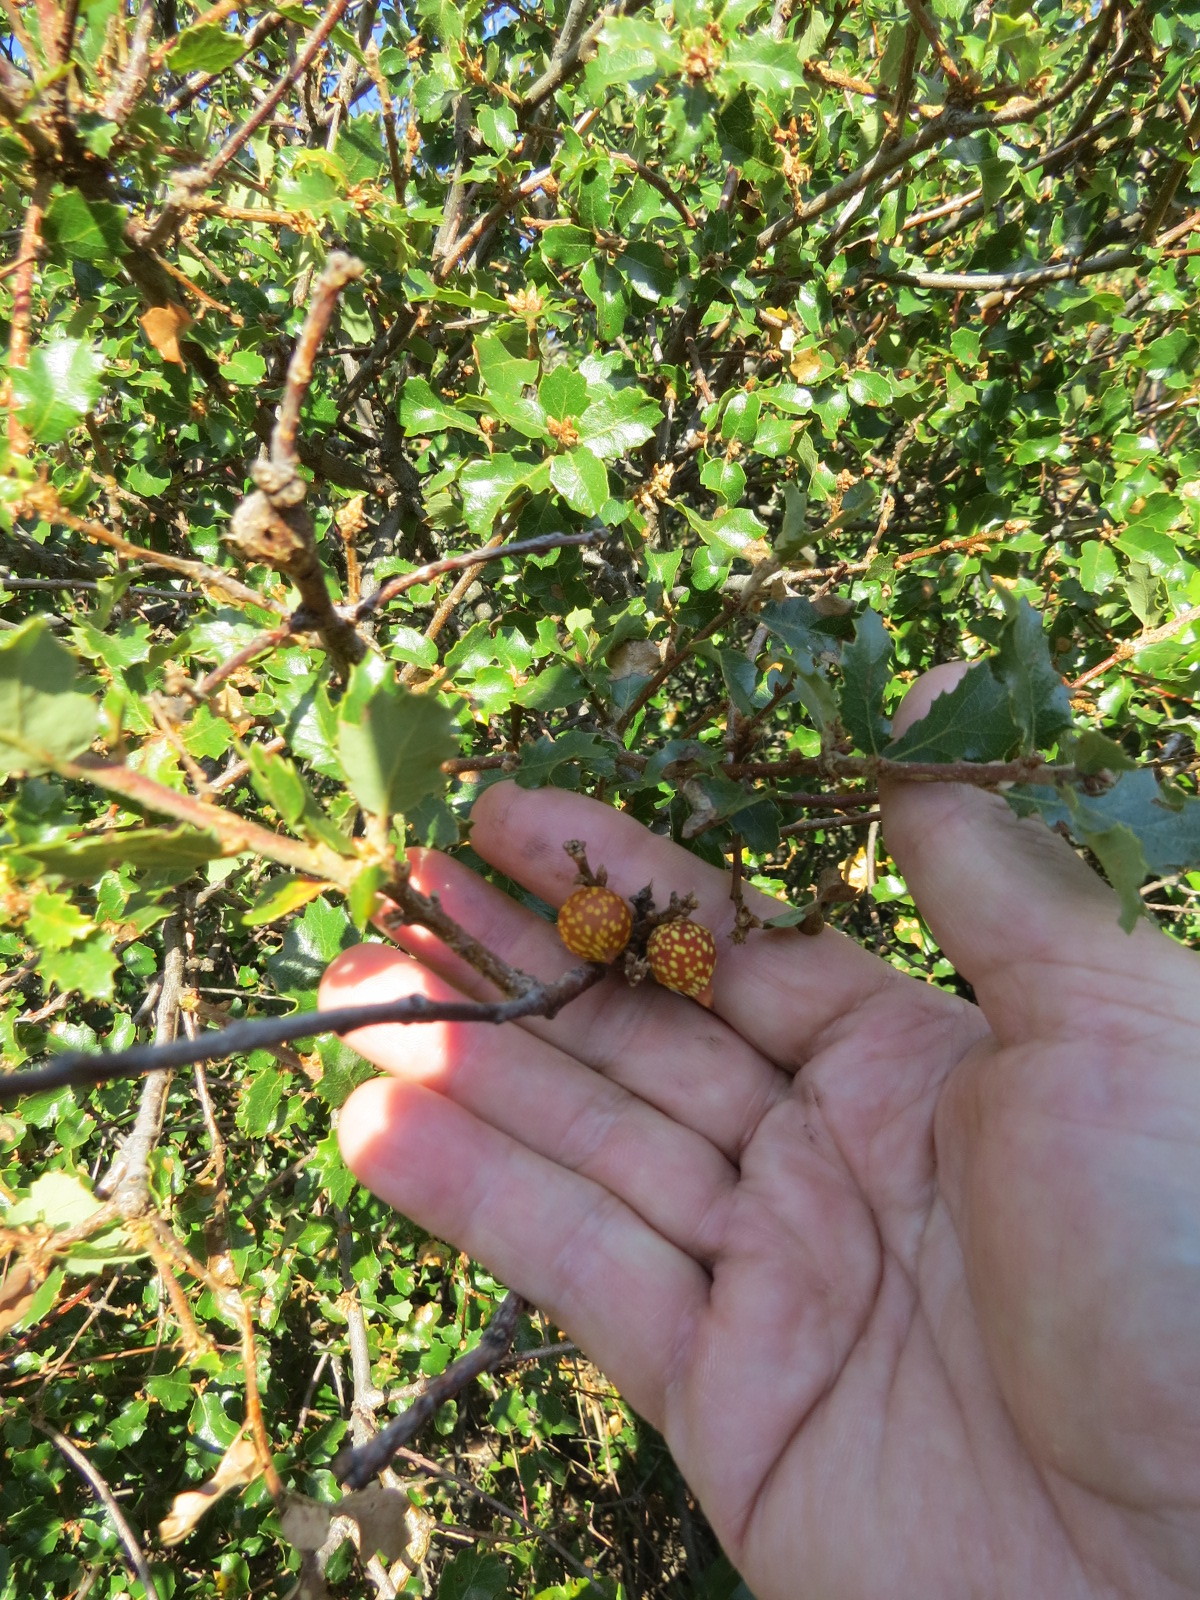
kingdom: Animalia
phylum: Arthropoda
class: Insecta
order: Hymenoptera
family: Cynipidae
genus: Burnettweldia
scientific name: Burnettweldia
